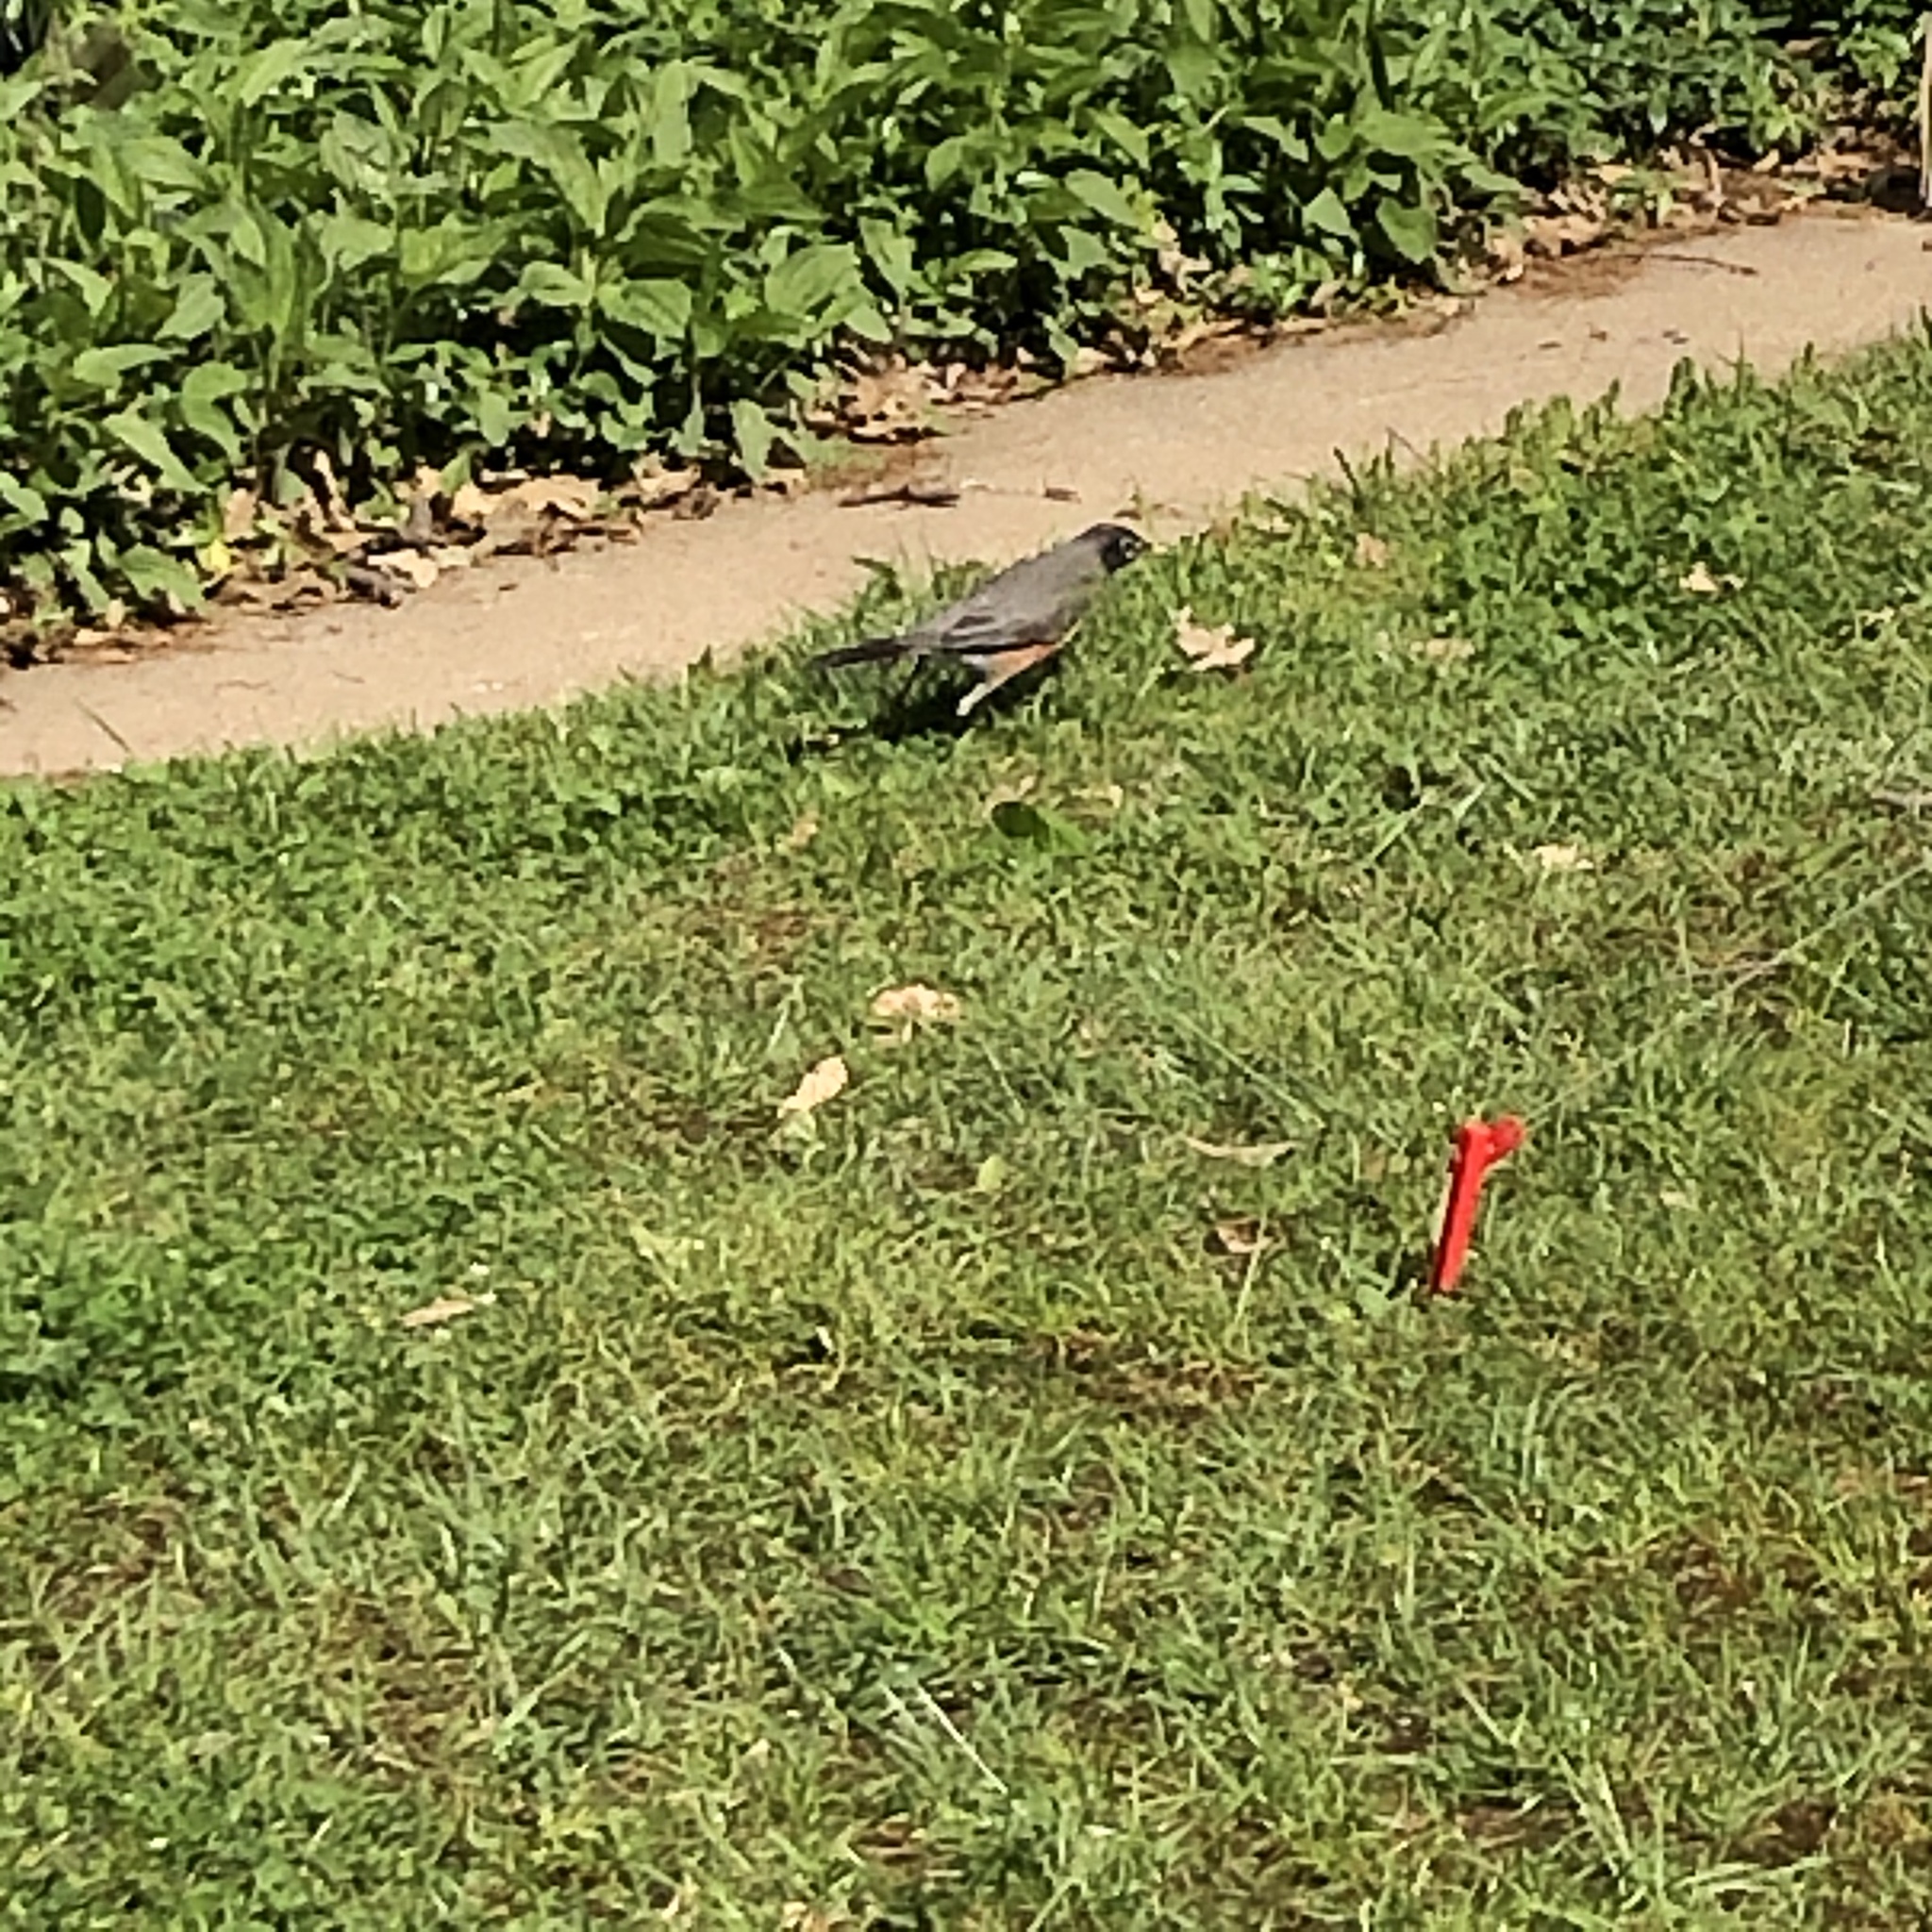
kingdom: Animalia
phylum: Chordata
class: Aves
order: Passeriformes
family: Turdidae
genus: Turdus
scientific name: Turdus migratorius
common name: American robin
